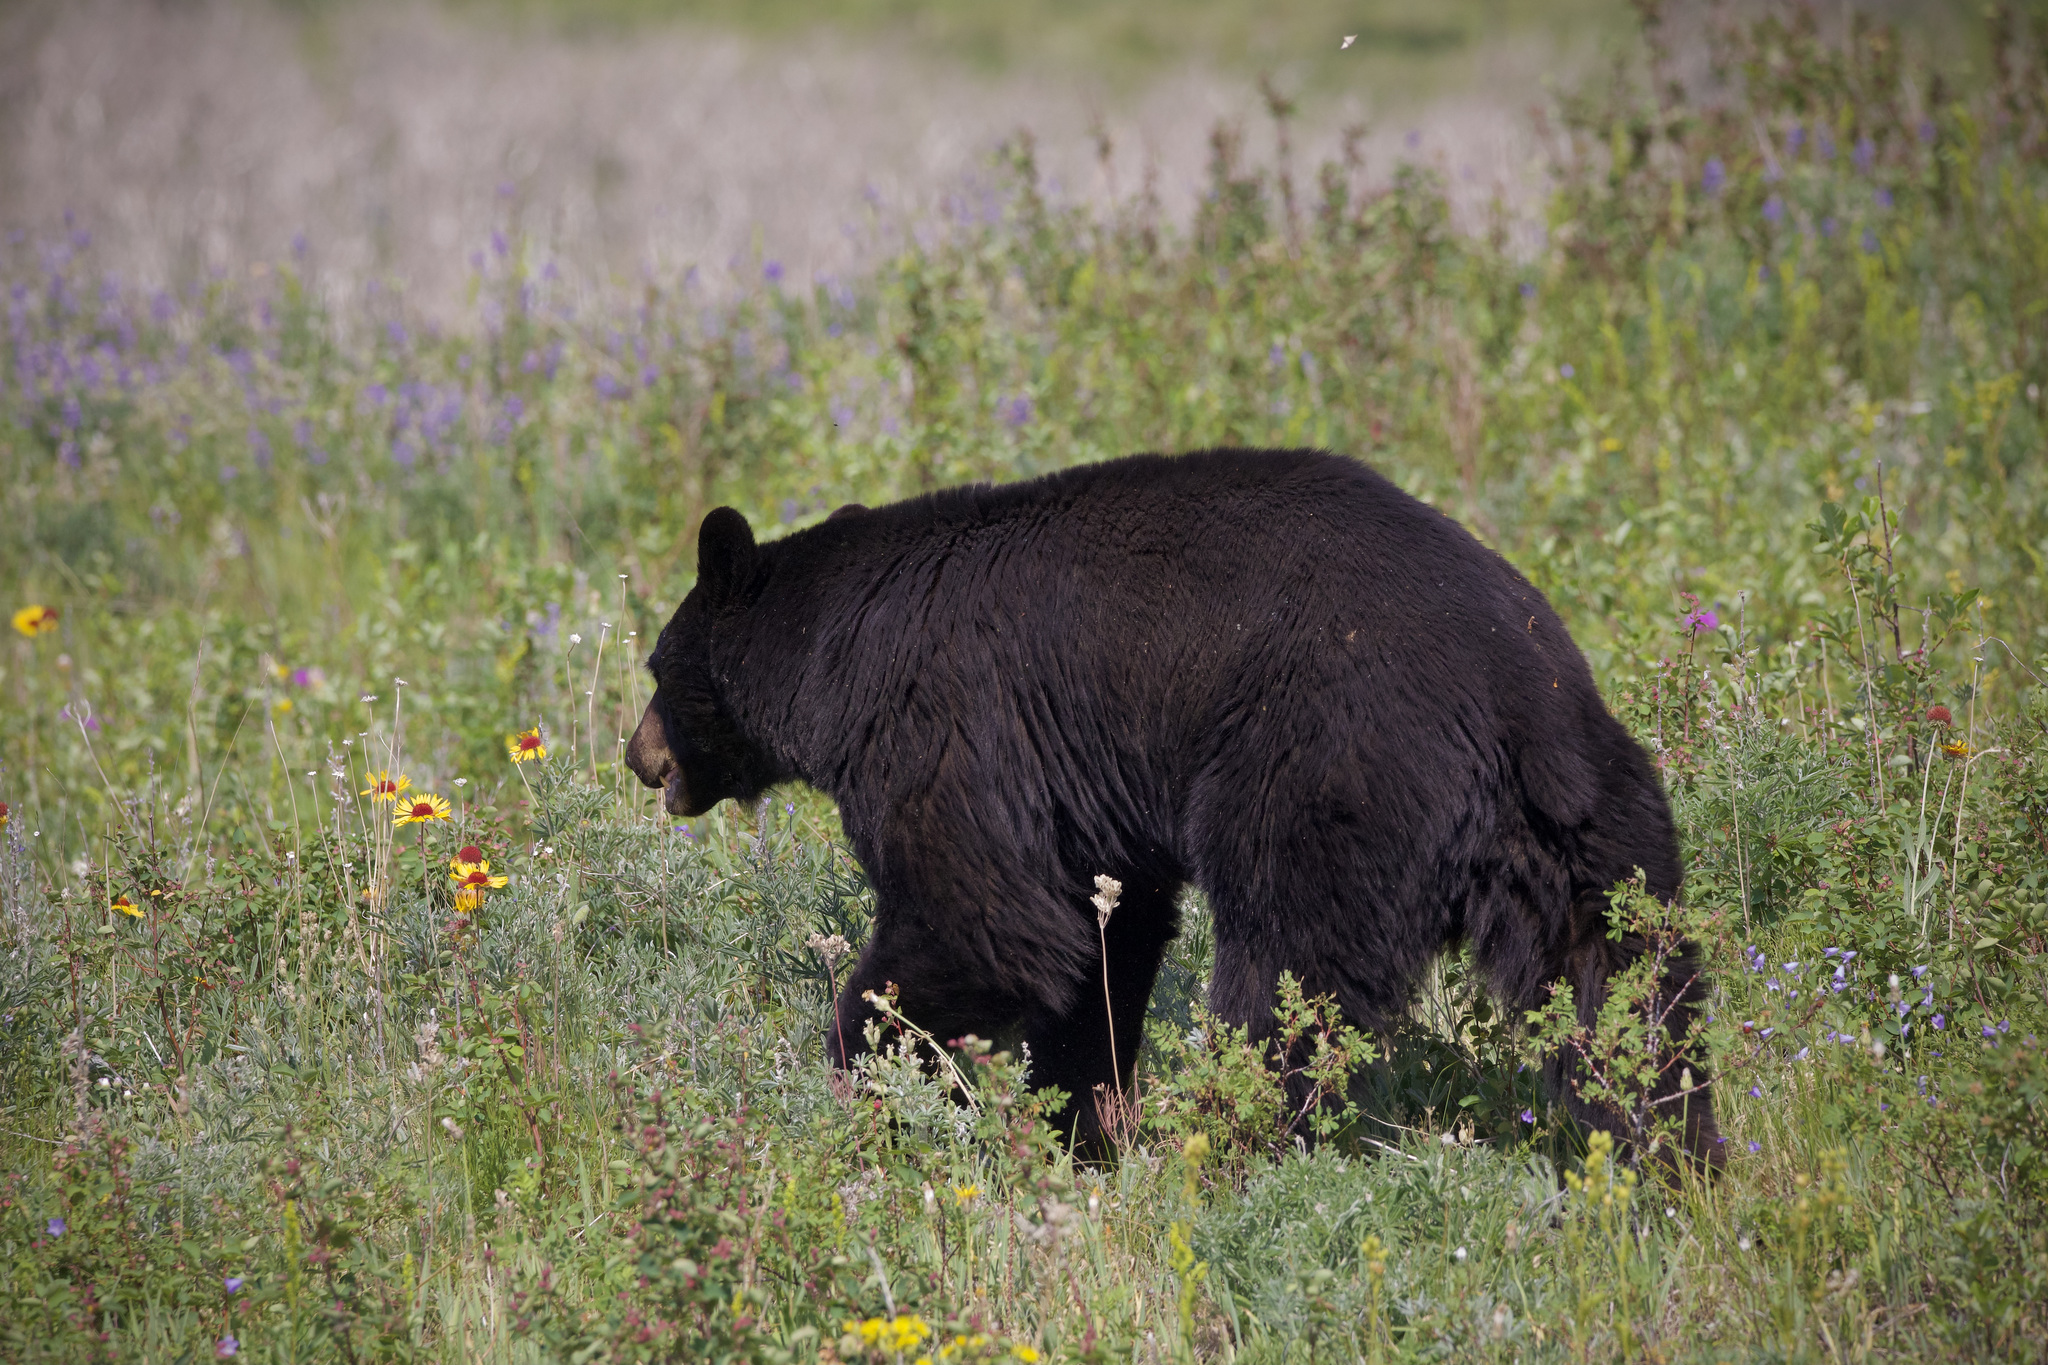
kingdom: Animalia
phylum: Chordata
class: Mammalia
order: Carnivora
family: Ursidae
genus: Ursus
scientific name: Ursus americanus
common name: American black bear
